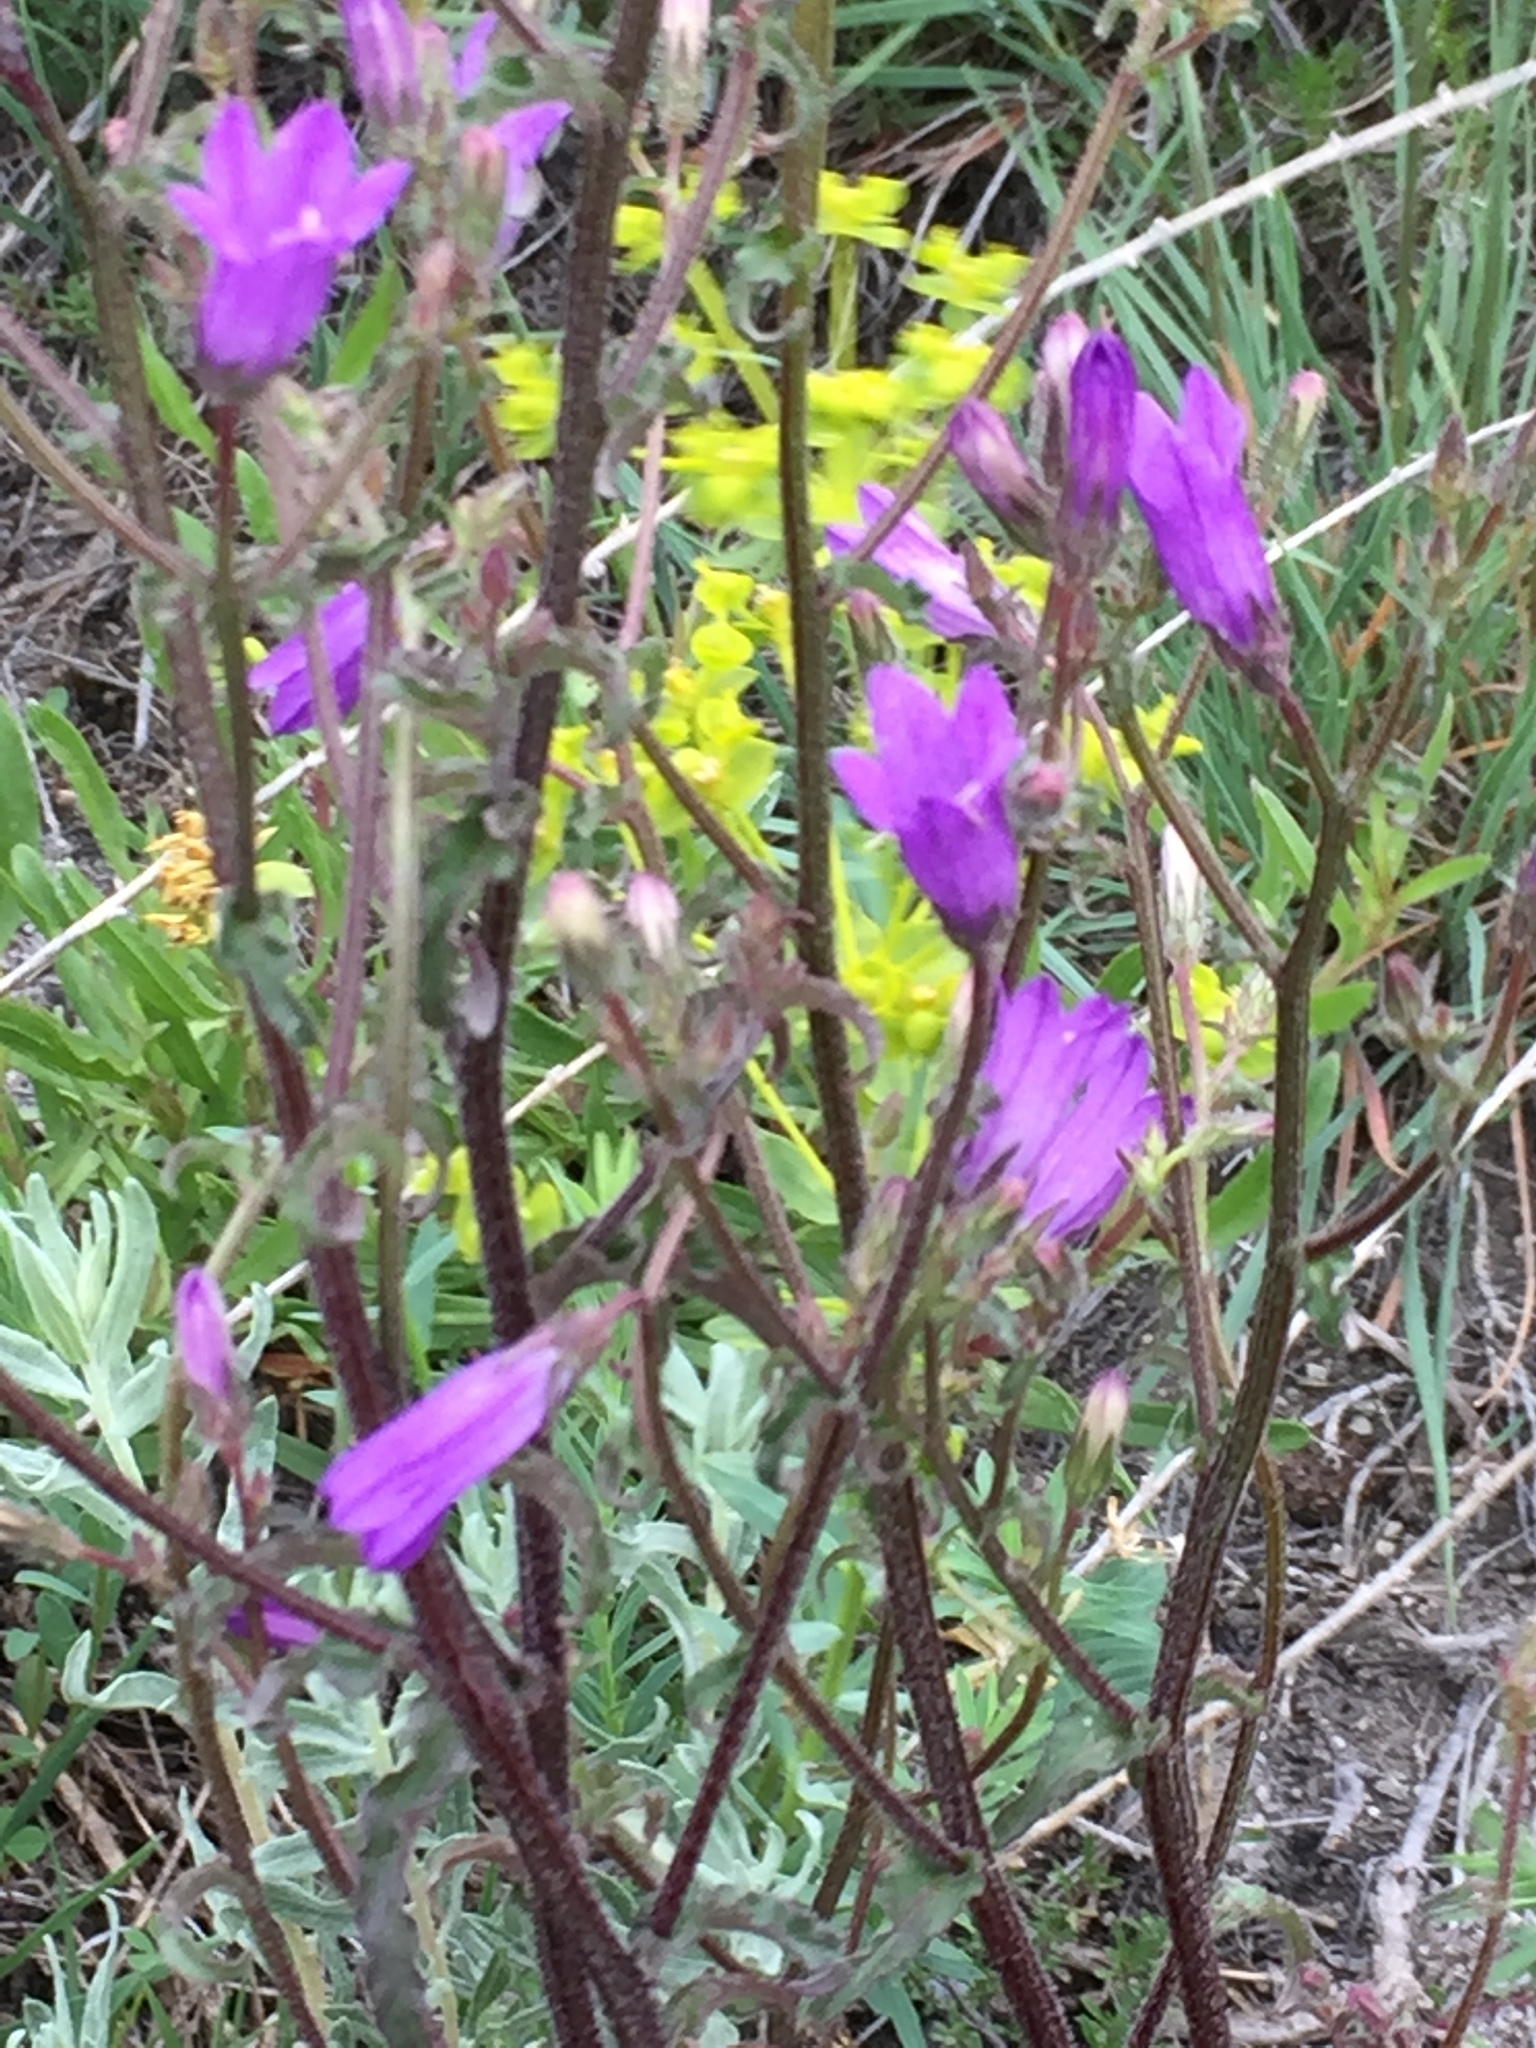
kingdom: Plantae
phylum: Tracheophyta
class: Magnoliopsida
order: Asterales
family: Campanulaceae
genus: Campanula
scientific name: Campanula sibirica
